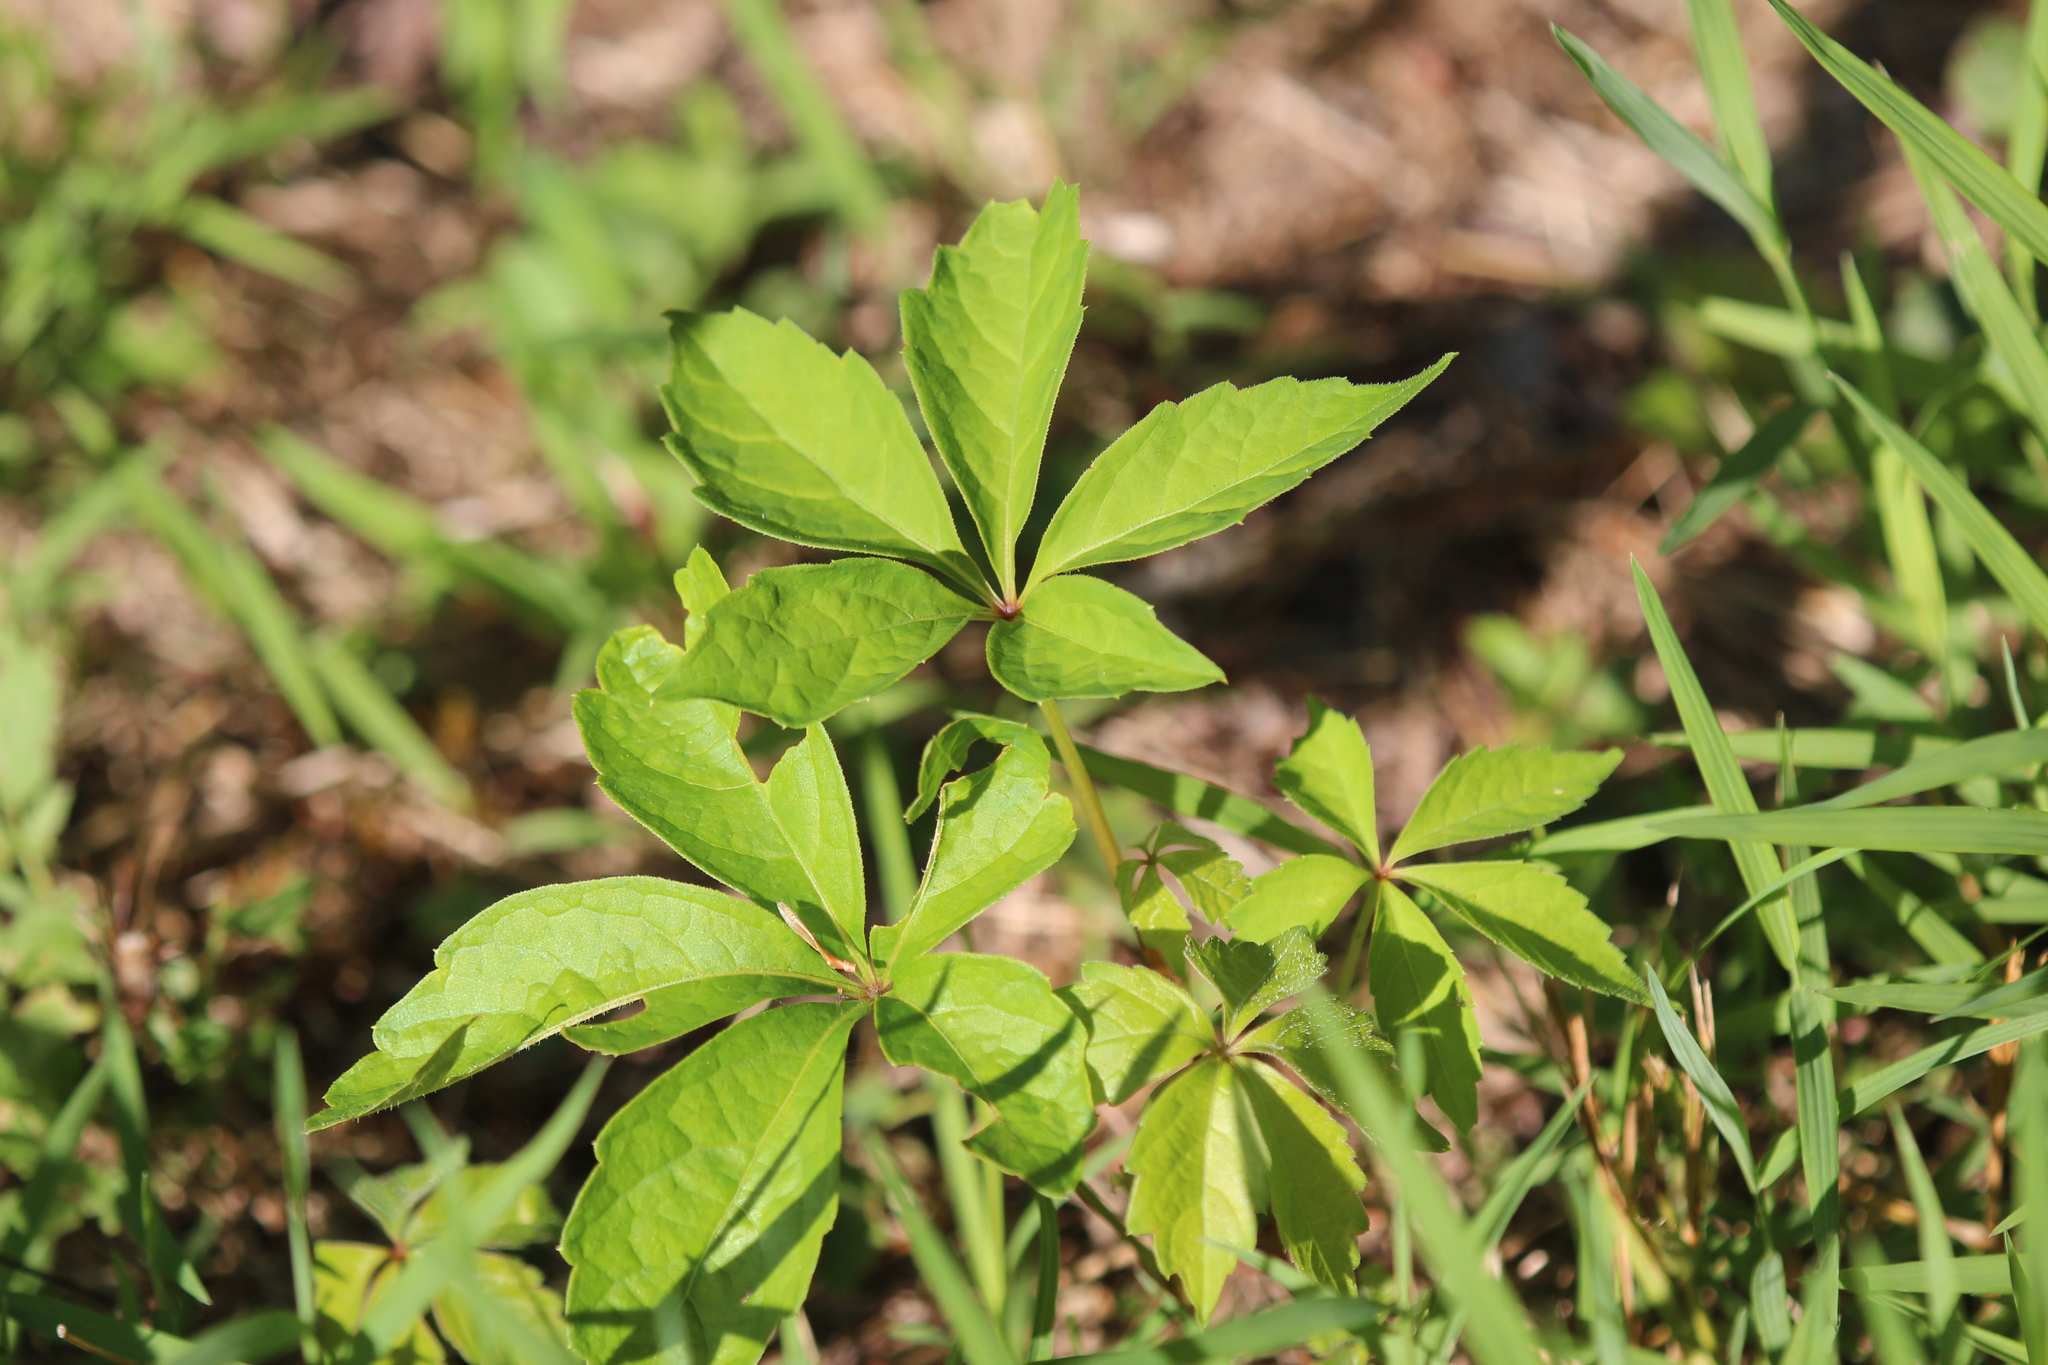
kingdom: Plantae
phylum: Tracheophyta
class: Magnoliopsida
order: Vitales
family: Vitaceae
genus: Parthenocissus
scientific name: Parthenocissus quinquefolia
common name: Virginia-creeper
